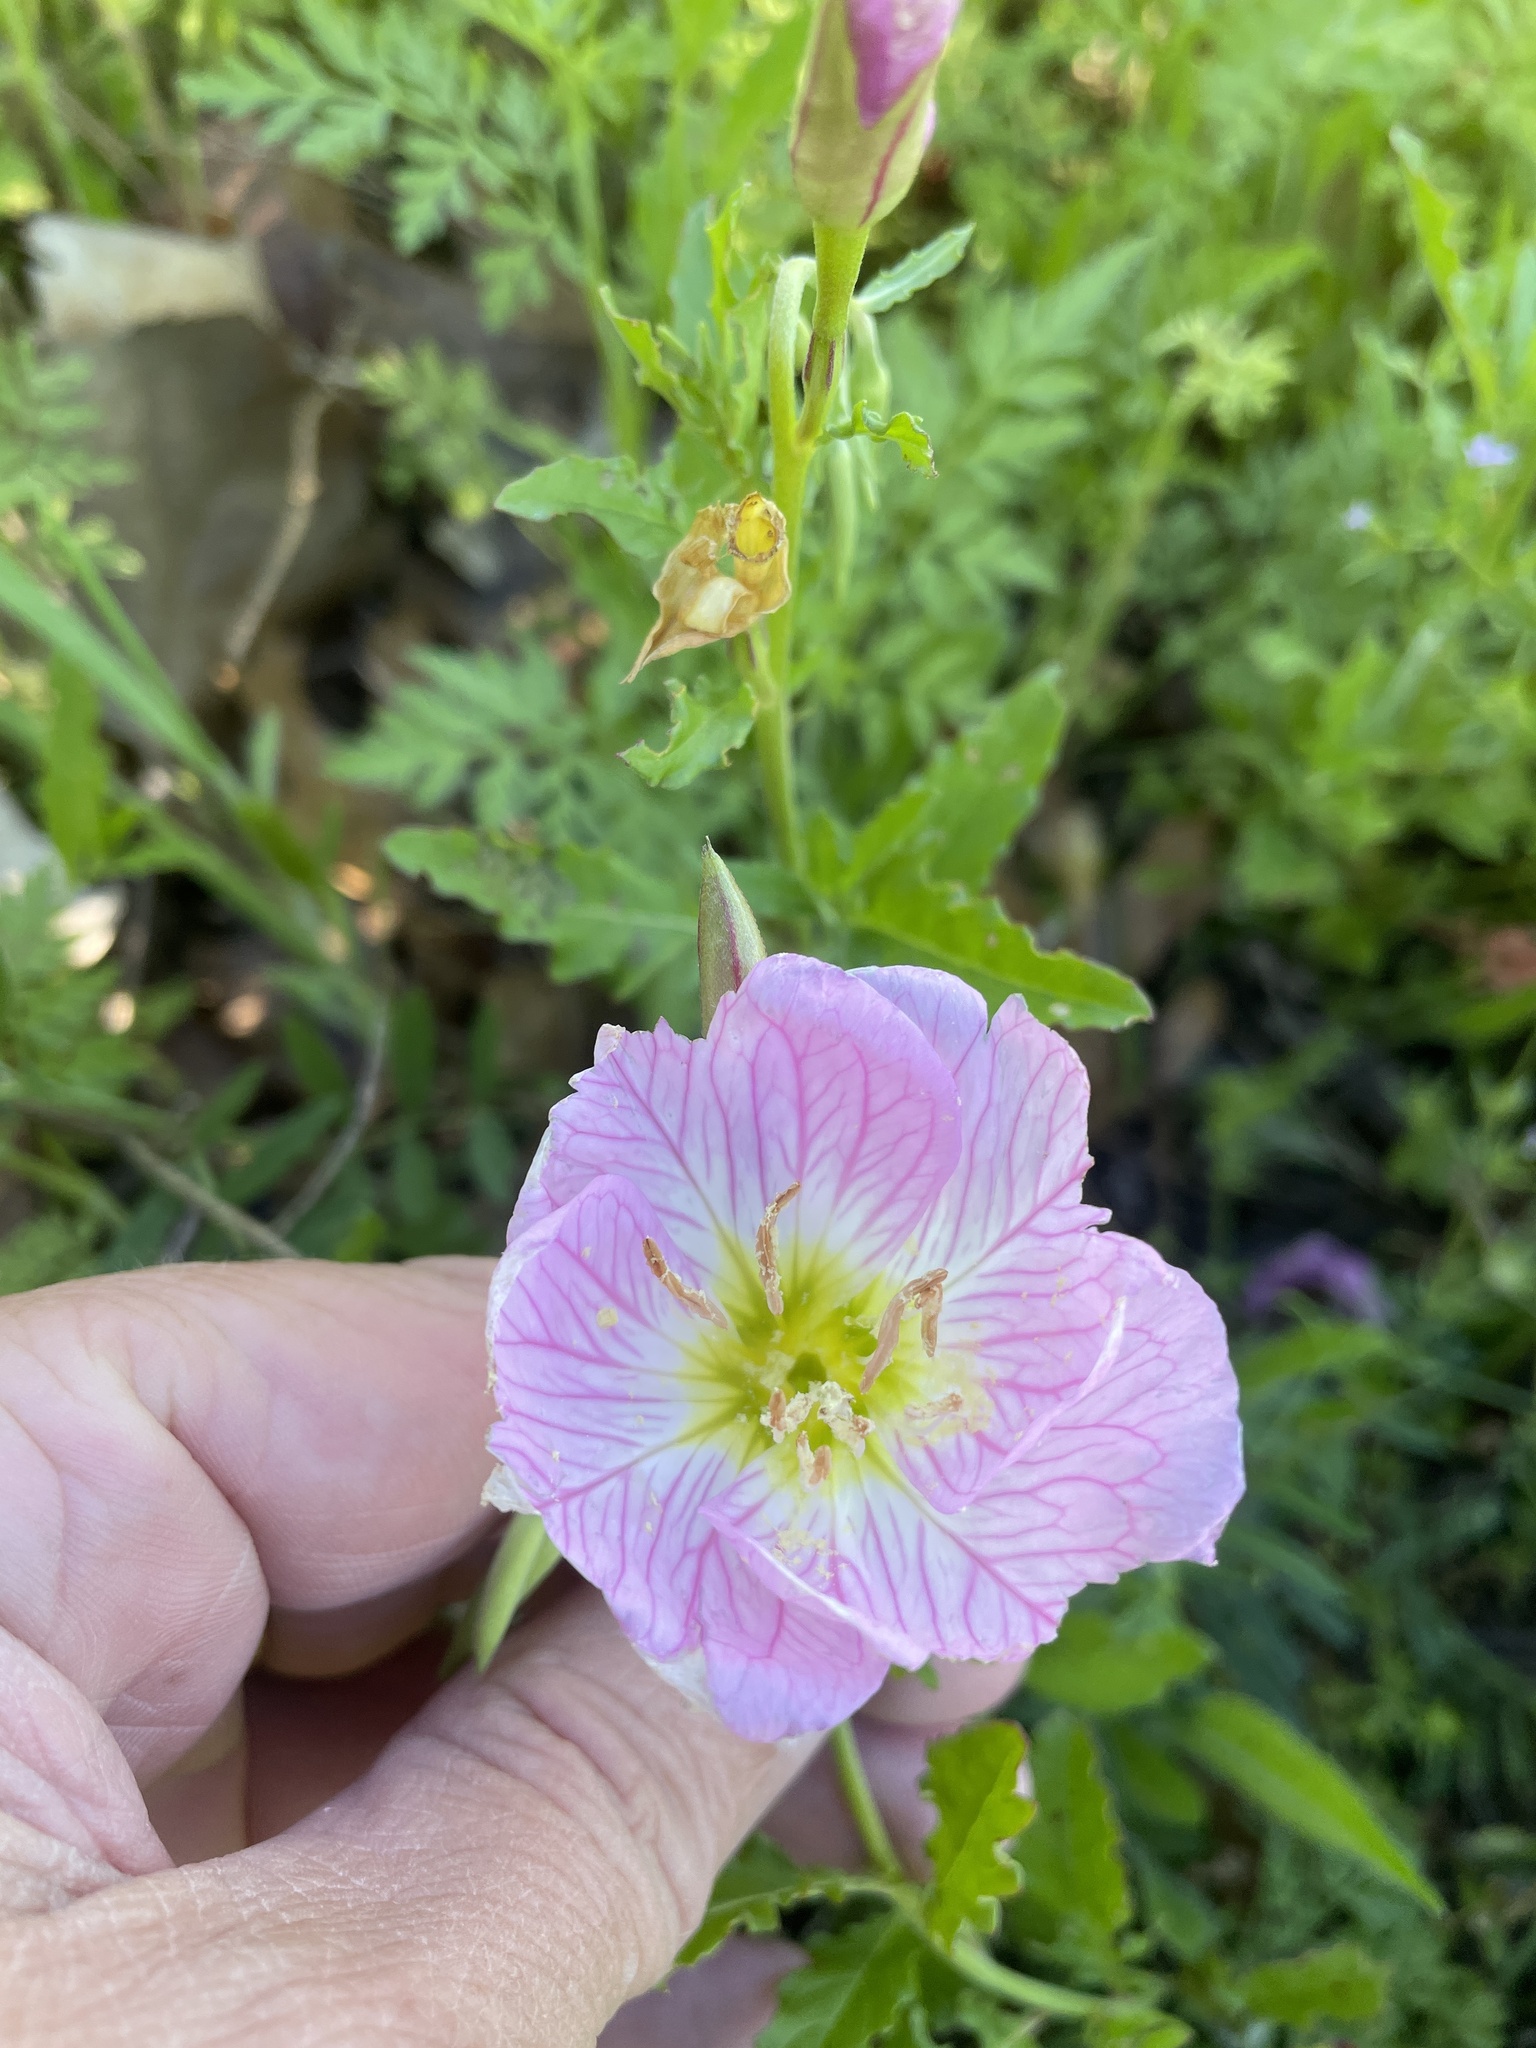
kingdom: Plantae
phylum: Tracheophyta
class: Magnoliopsida
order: Myrtales
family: Onagraceae
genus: Oenothera
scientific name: Oenothera speciosa
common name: White evening-primrose
